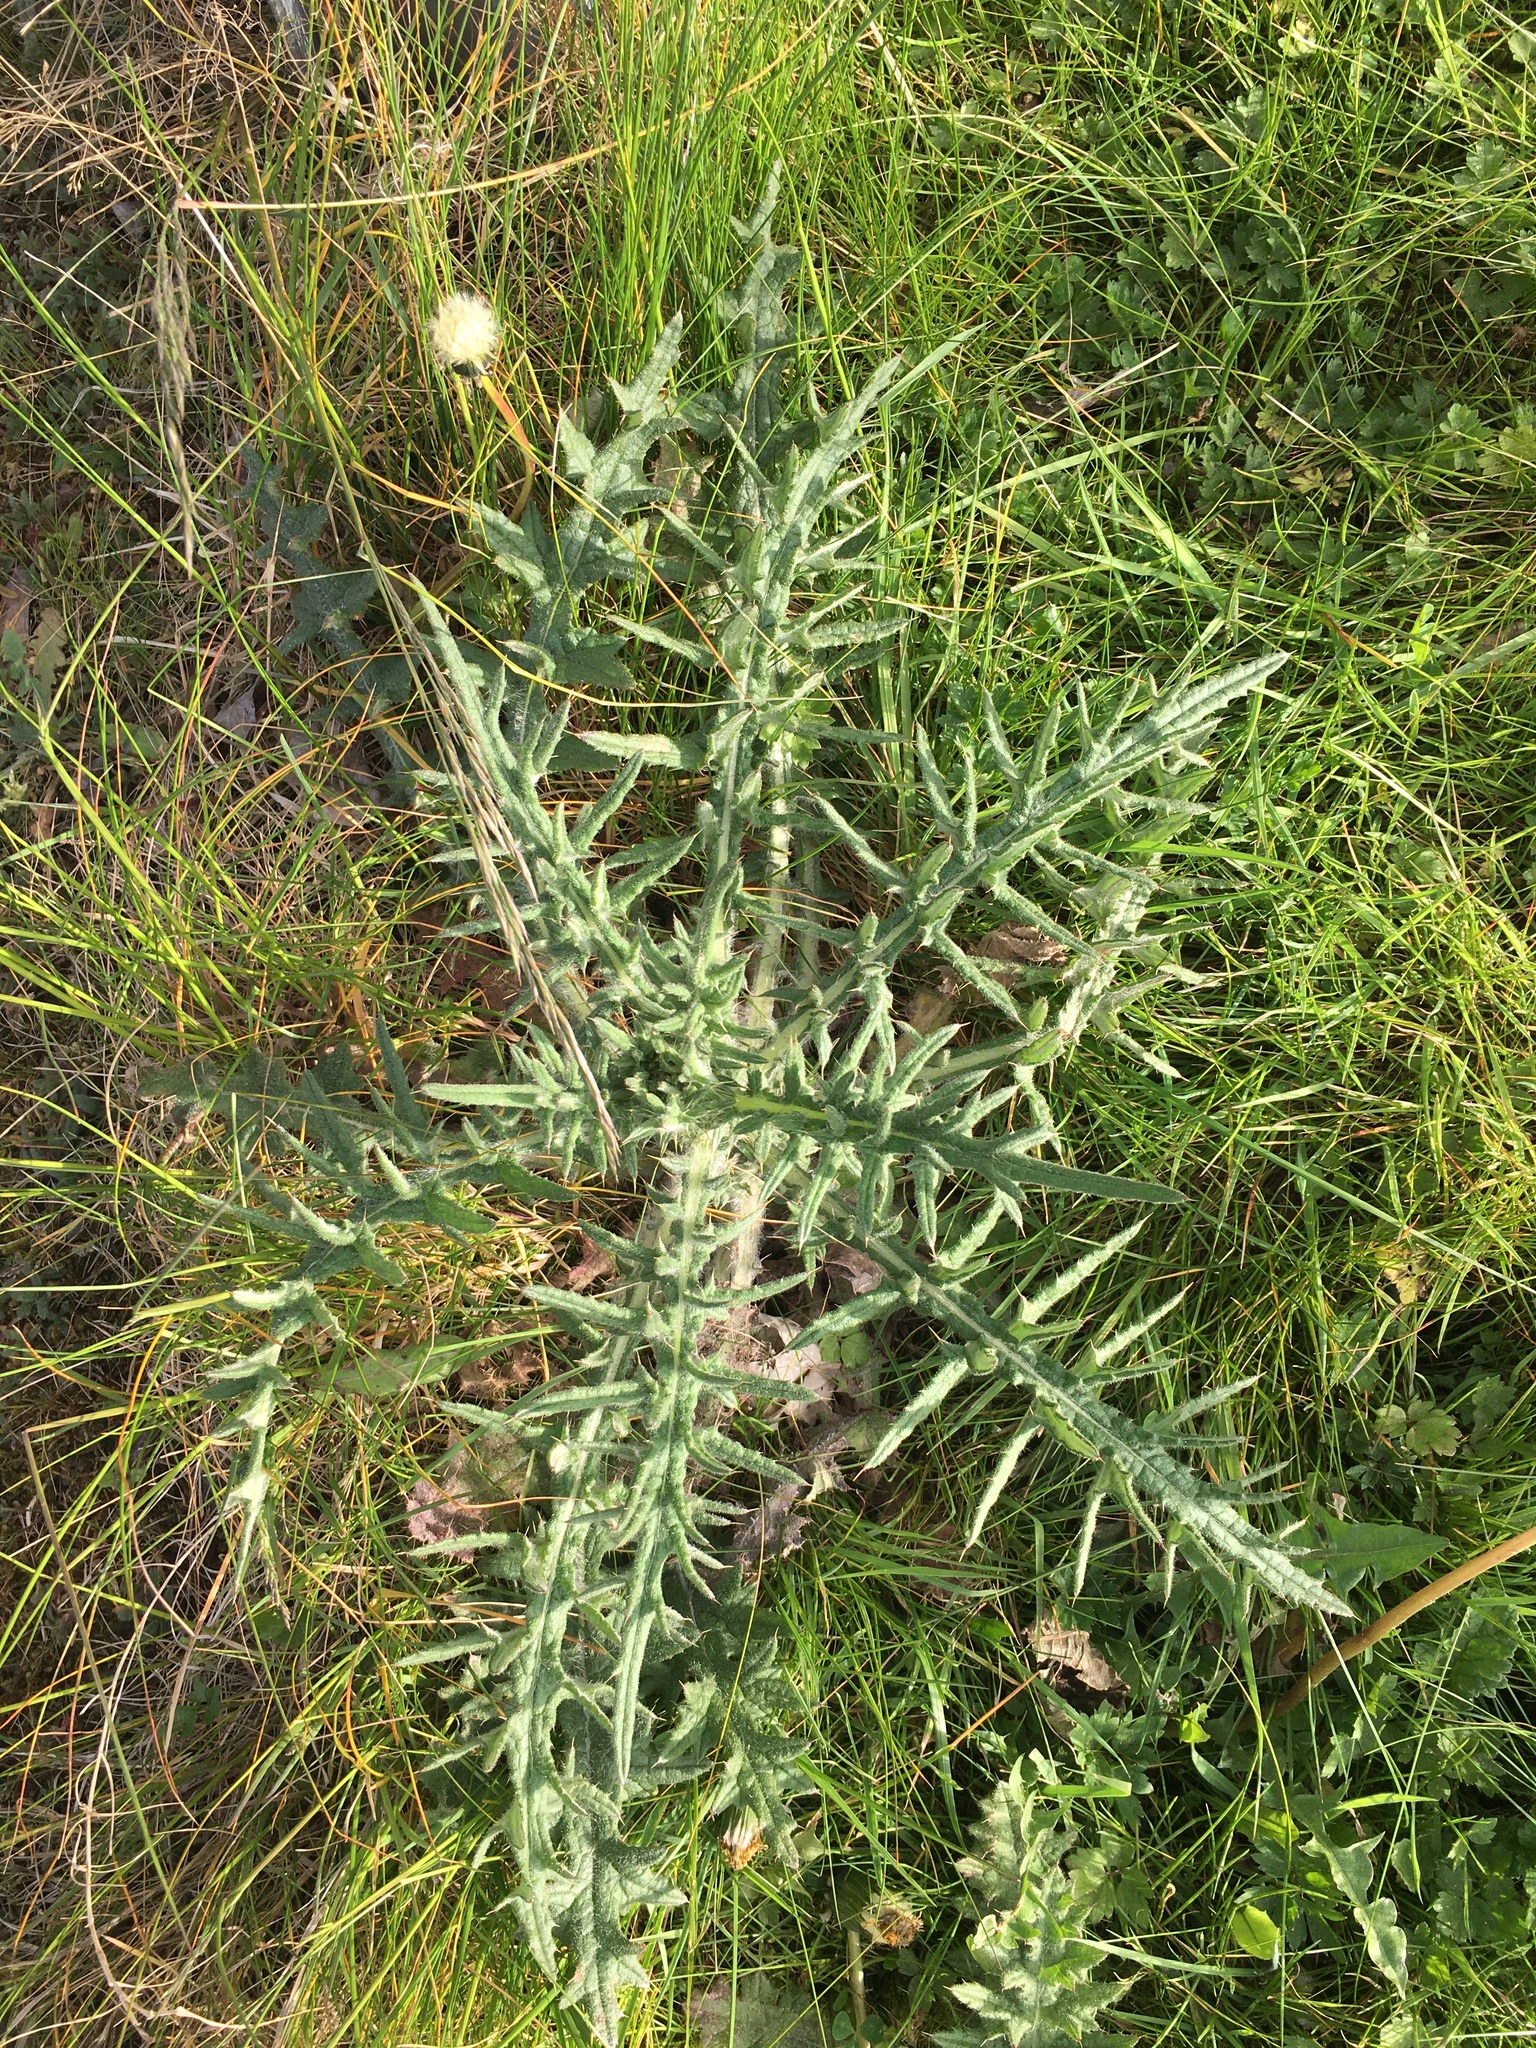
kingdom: Plantae
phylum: Tracheophyta
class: Magnoliopsida
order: Asterales
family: Asteraceae
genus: Cirsium
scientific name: Cirsium vulgare
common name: Bull thistle
